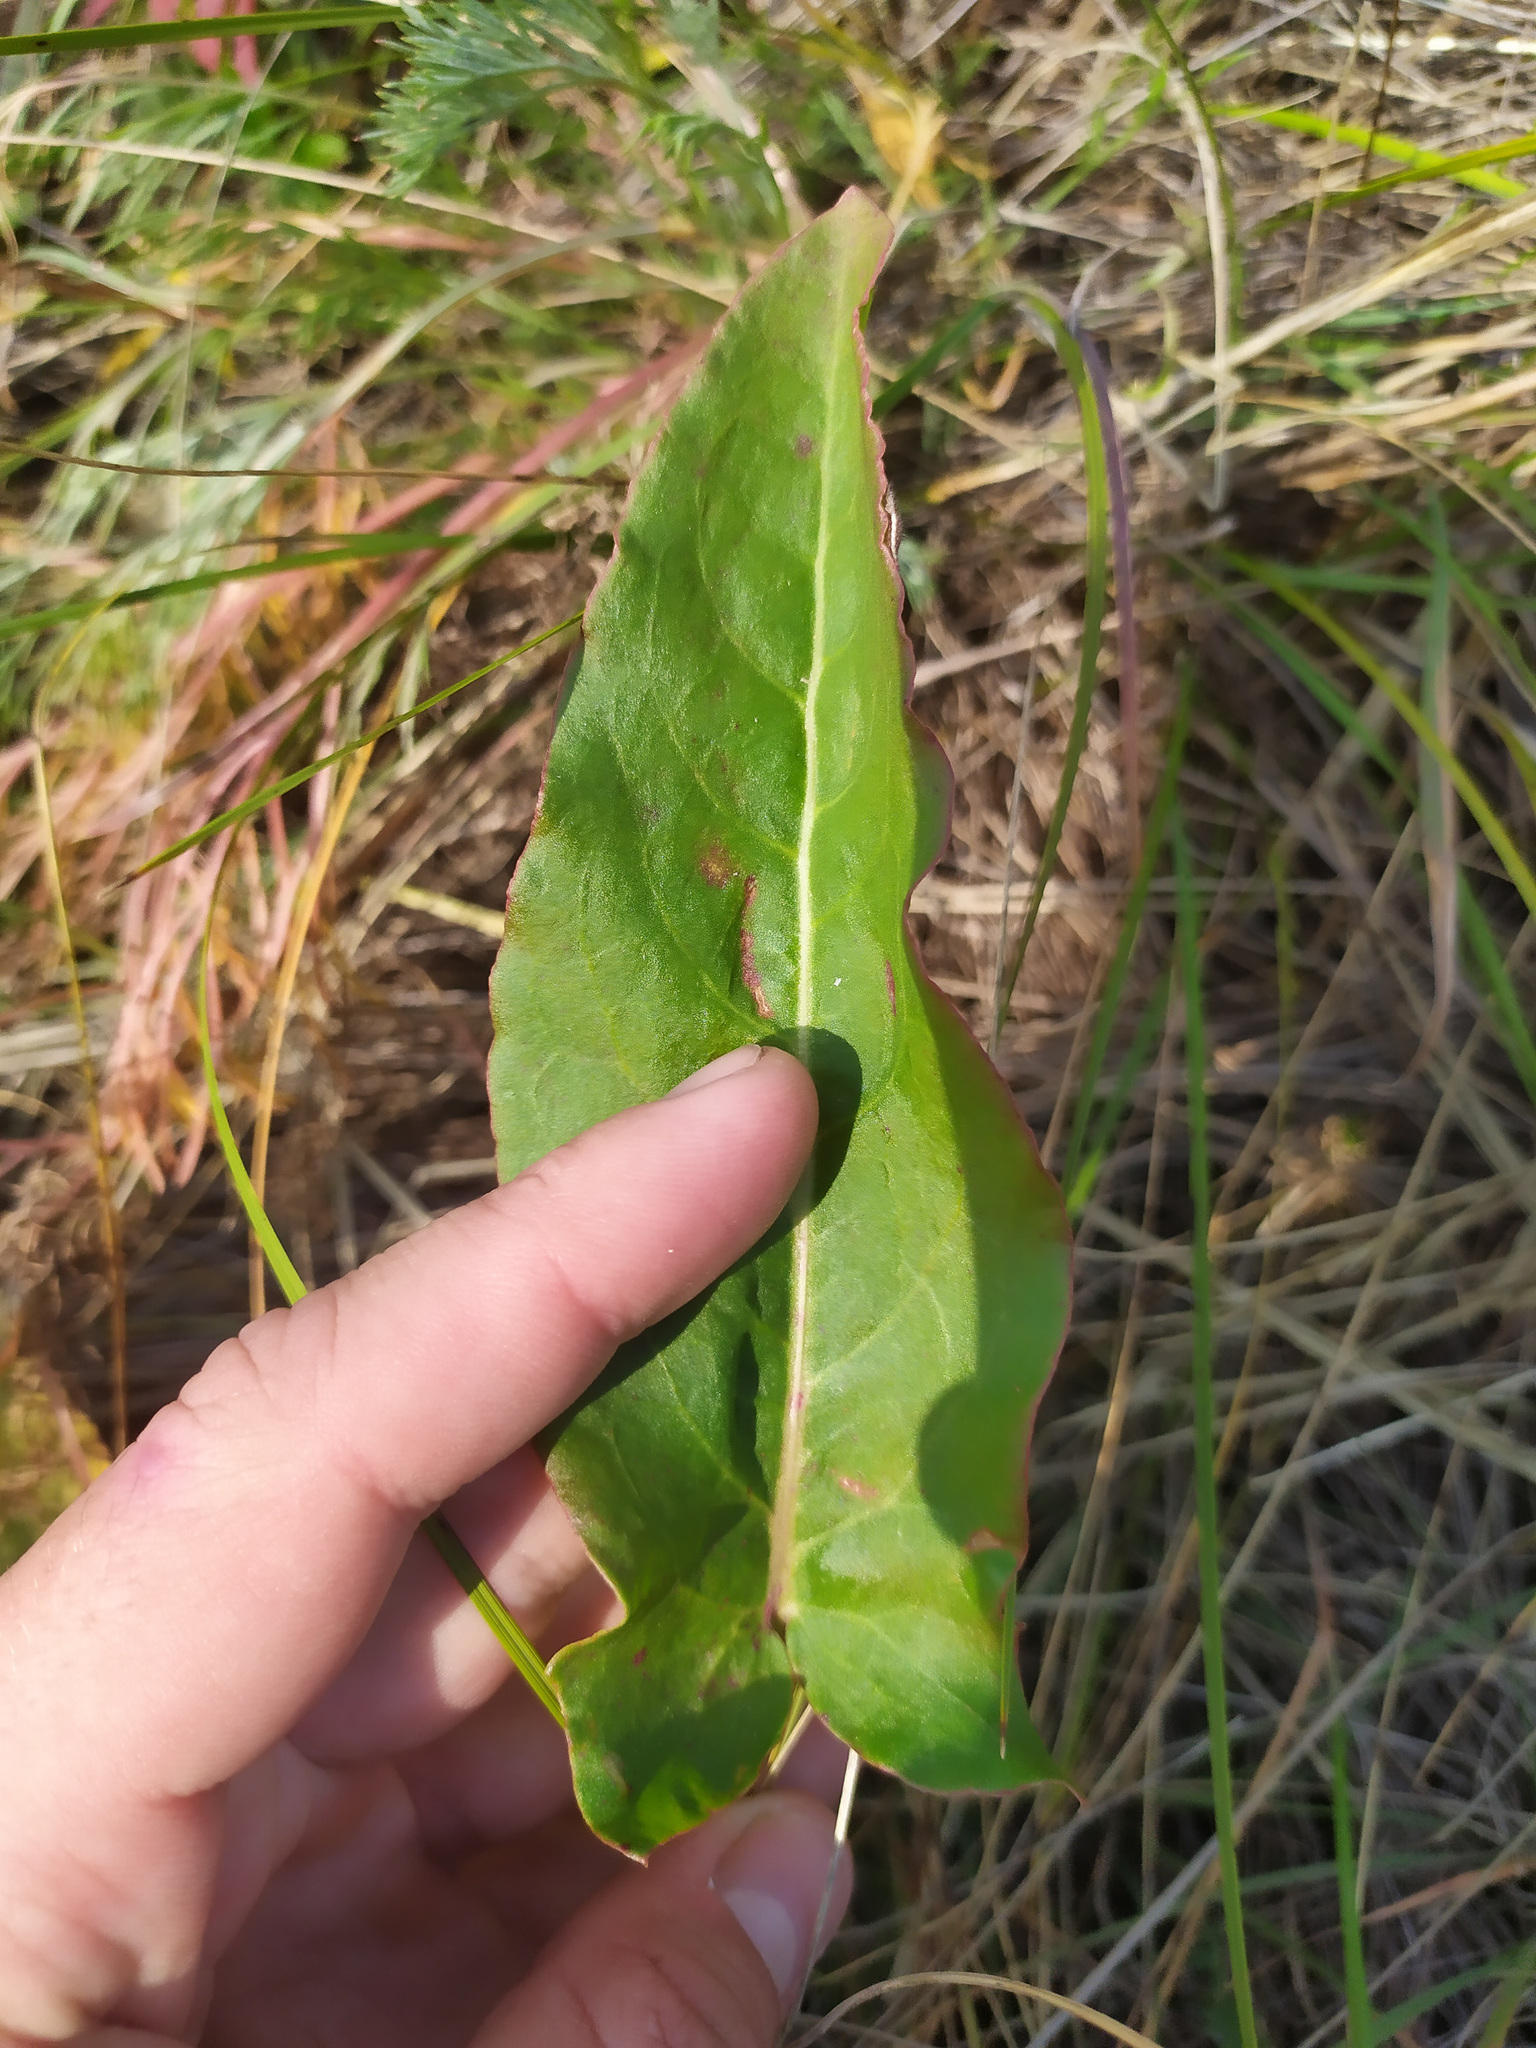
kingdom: Plantae
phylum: Tracheophyta
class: Magnoliopsida
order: Caryophyllales
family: Polygonaceae
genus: Rumex
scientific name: Rumex
